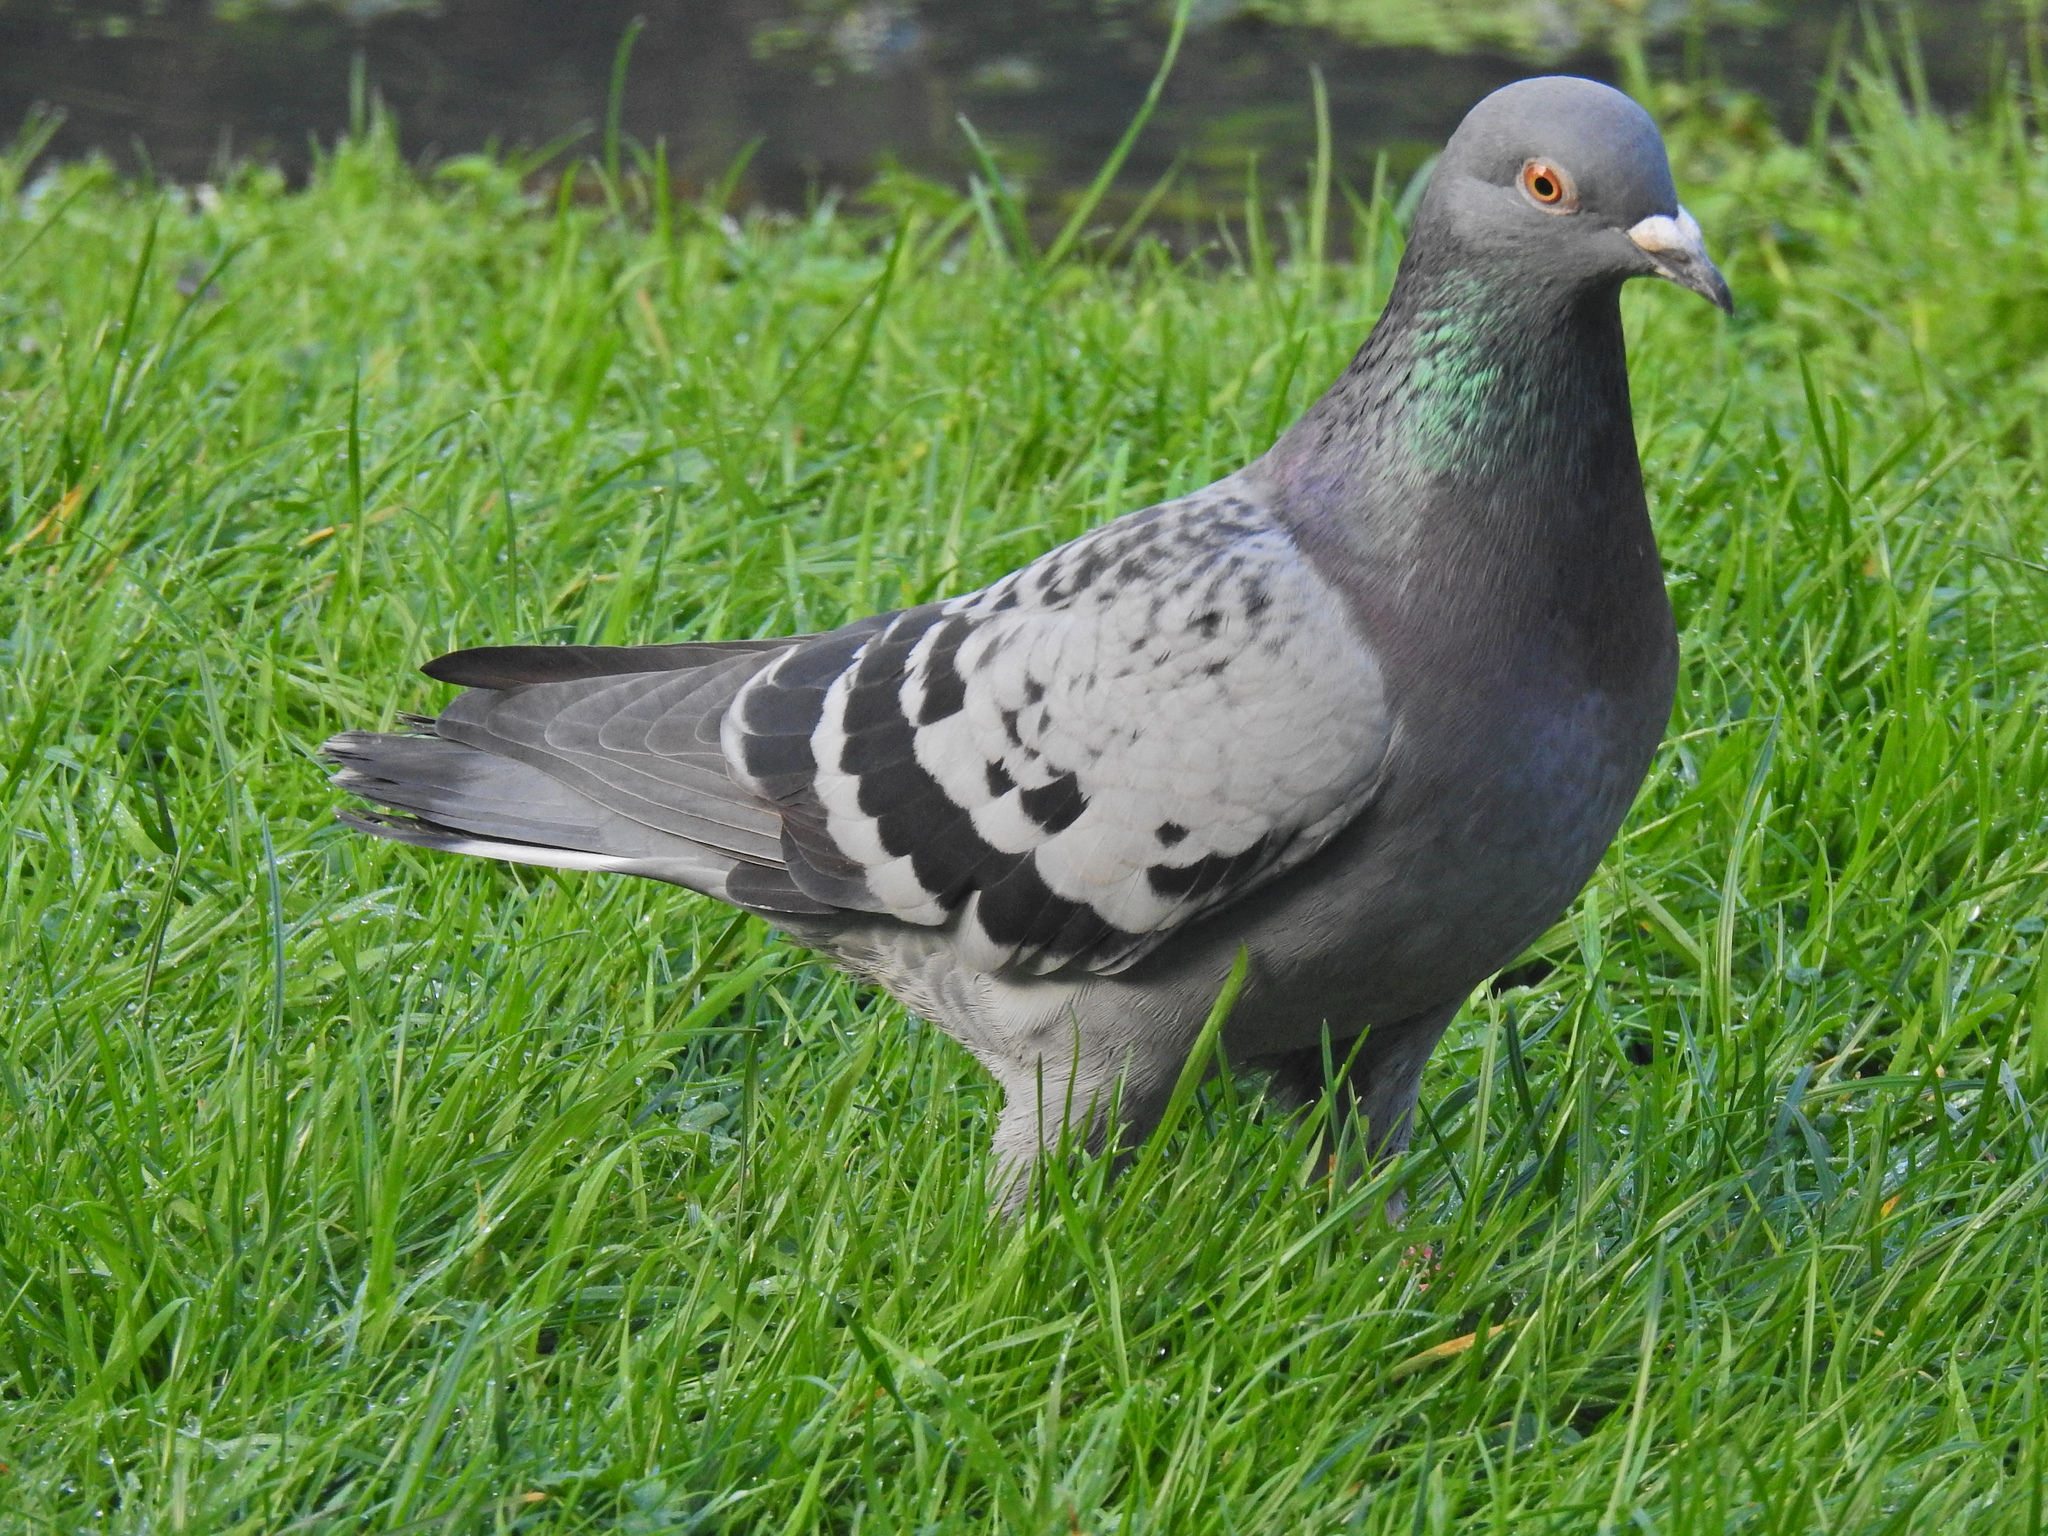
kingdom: Animalia
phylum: Chordata
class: Aves
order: Columbiformes
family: Columbidae
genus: Columba
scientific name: Columba livia
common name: Rock pigeon
